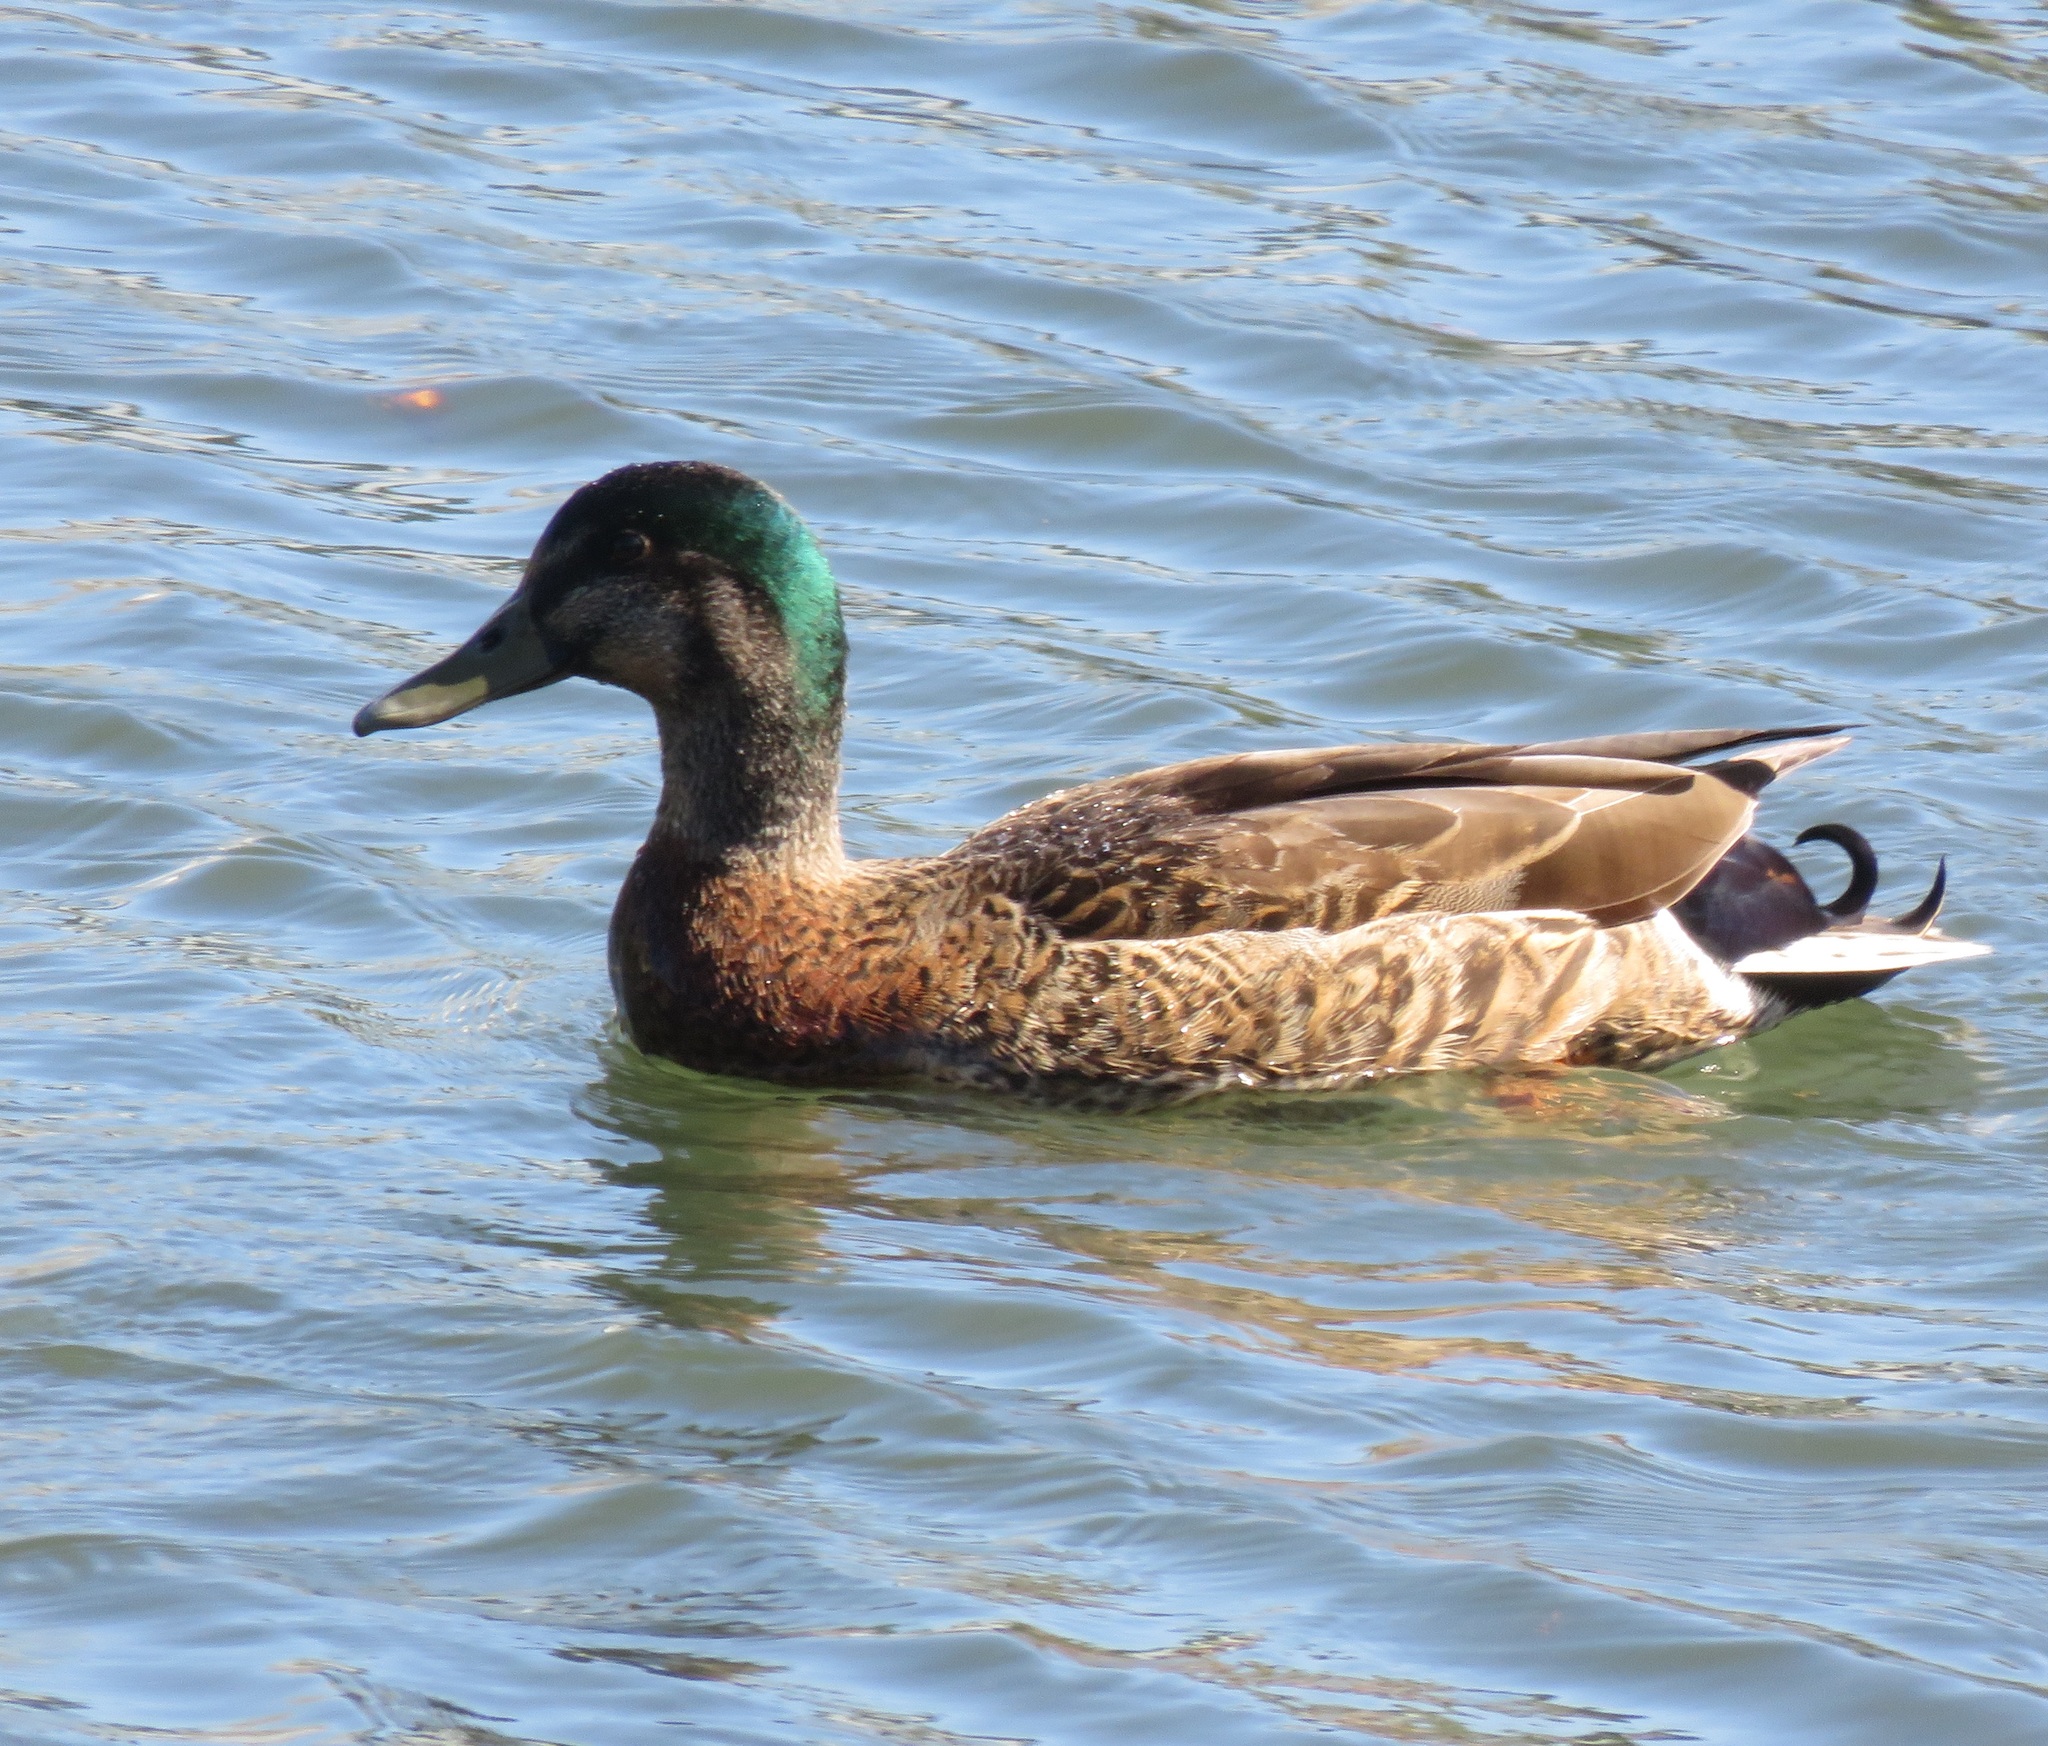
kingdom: Animalia
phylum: Chordata
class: Aves
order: Anseriformes
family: Anatidae
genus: Anas
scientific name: Anas platyrhynchos
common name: Mallard
